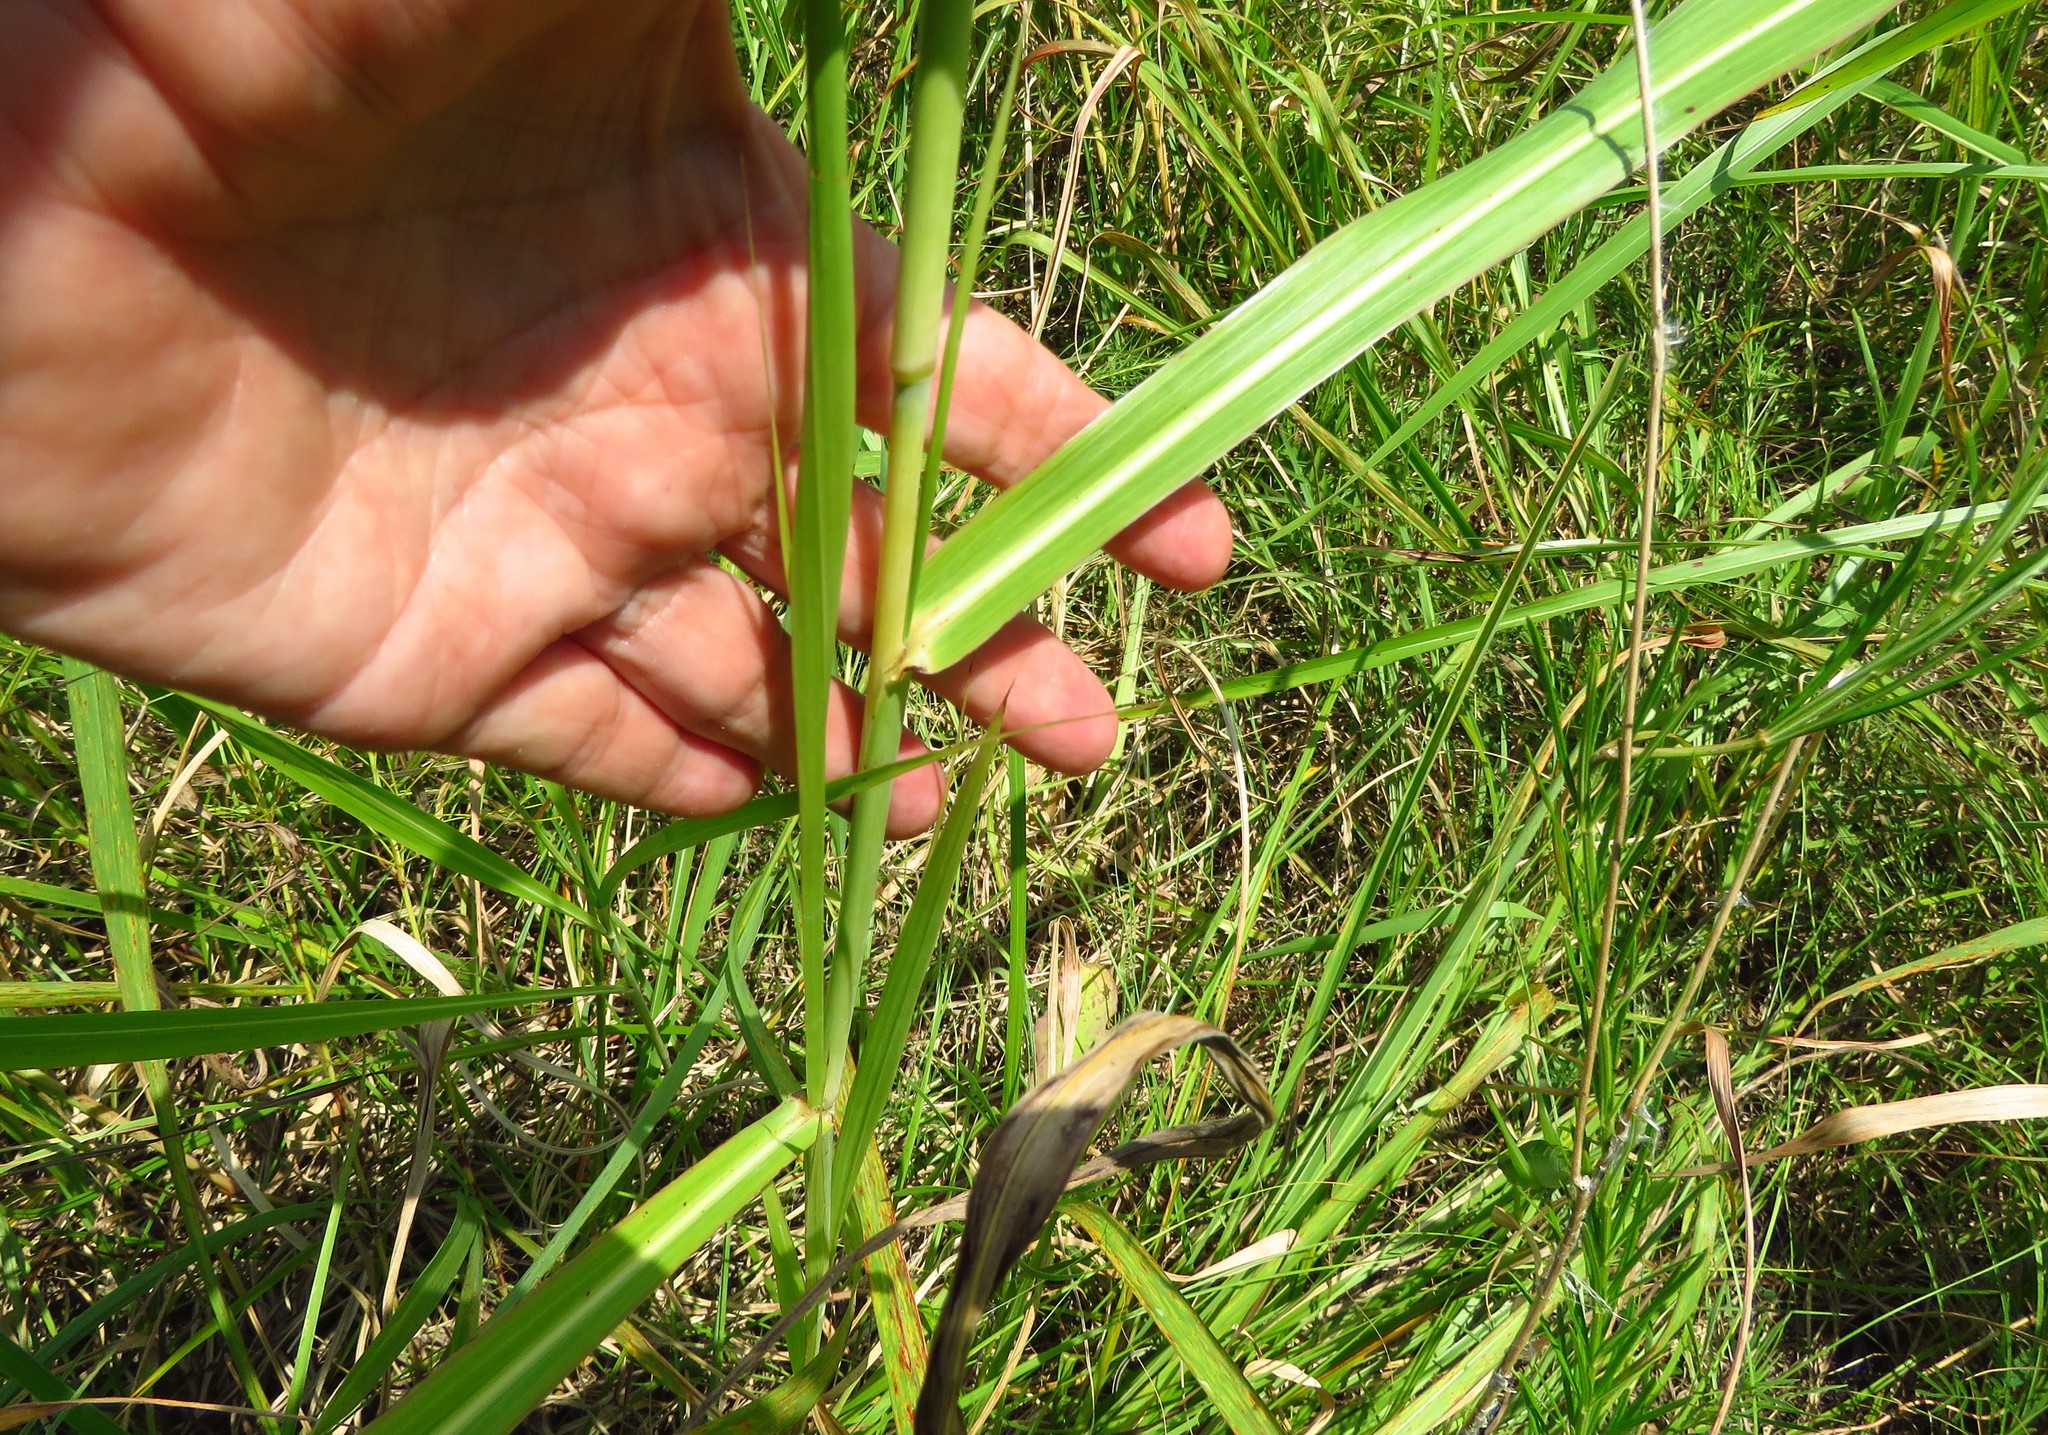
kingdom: Plantae
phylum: Tracheophyta
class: Liliopsida
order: Poales
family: Poaceae
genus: Sorghum
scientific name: Sorghum halepense
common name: Johnson-grass
